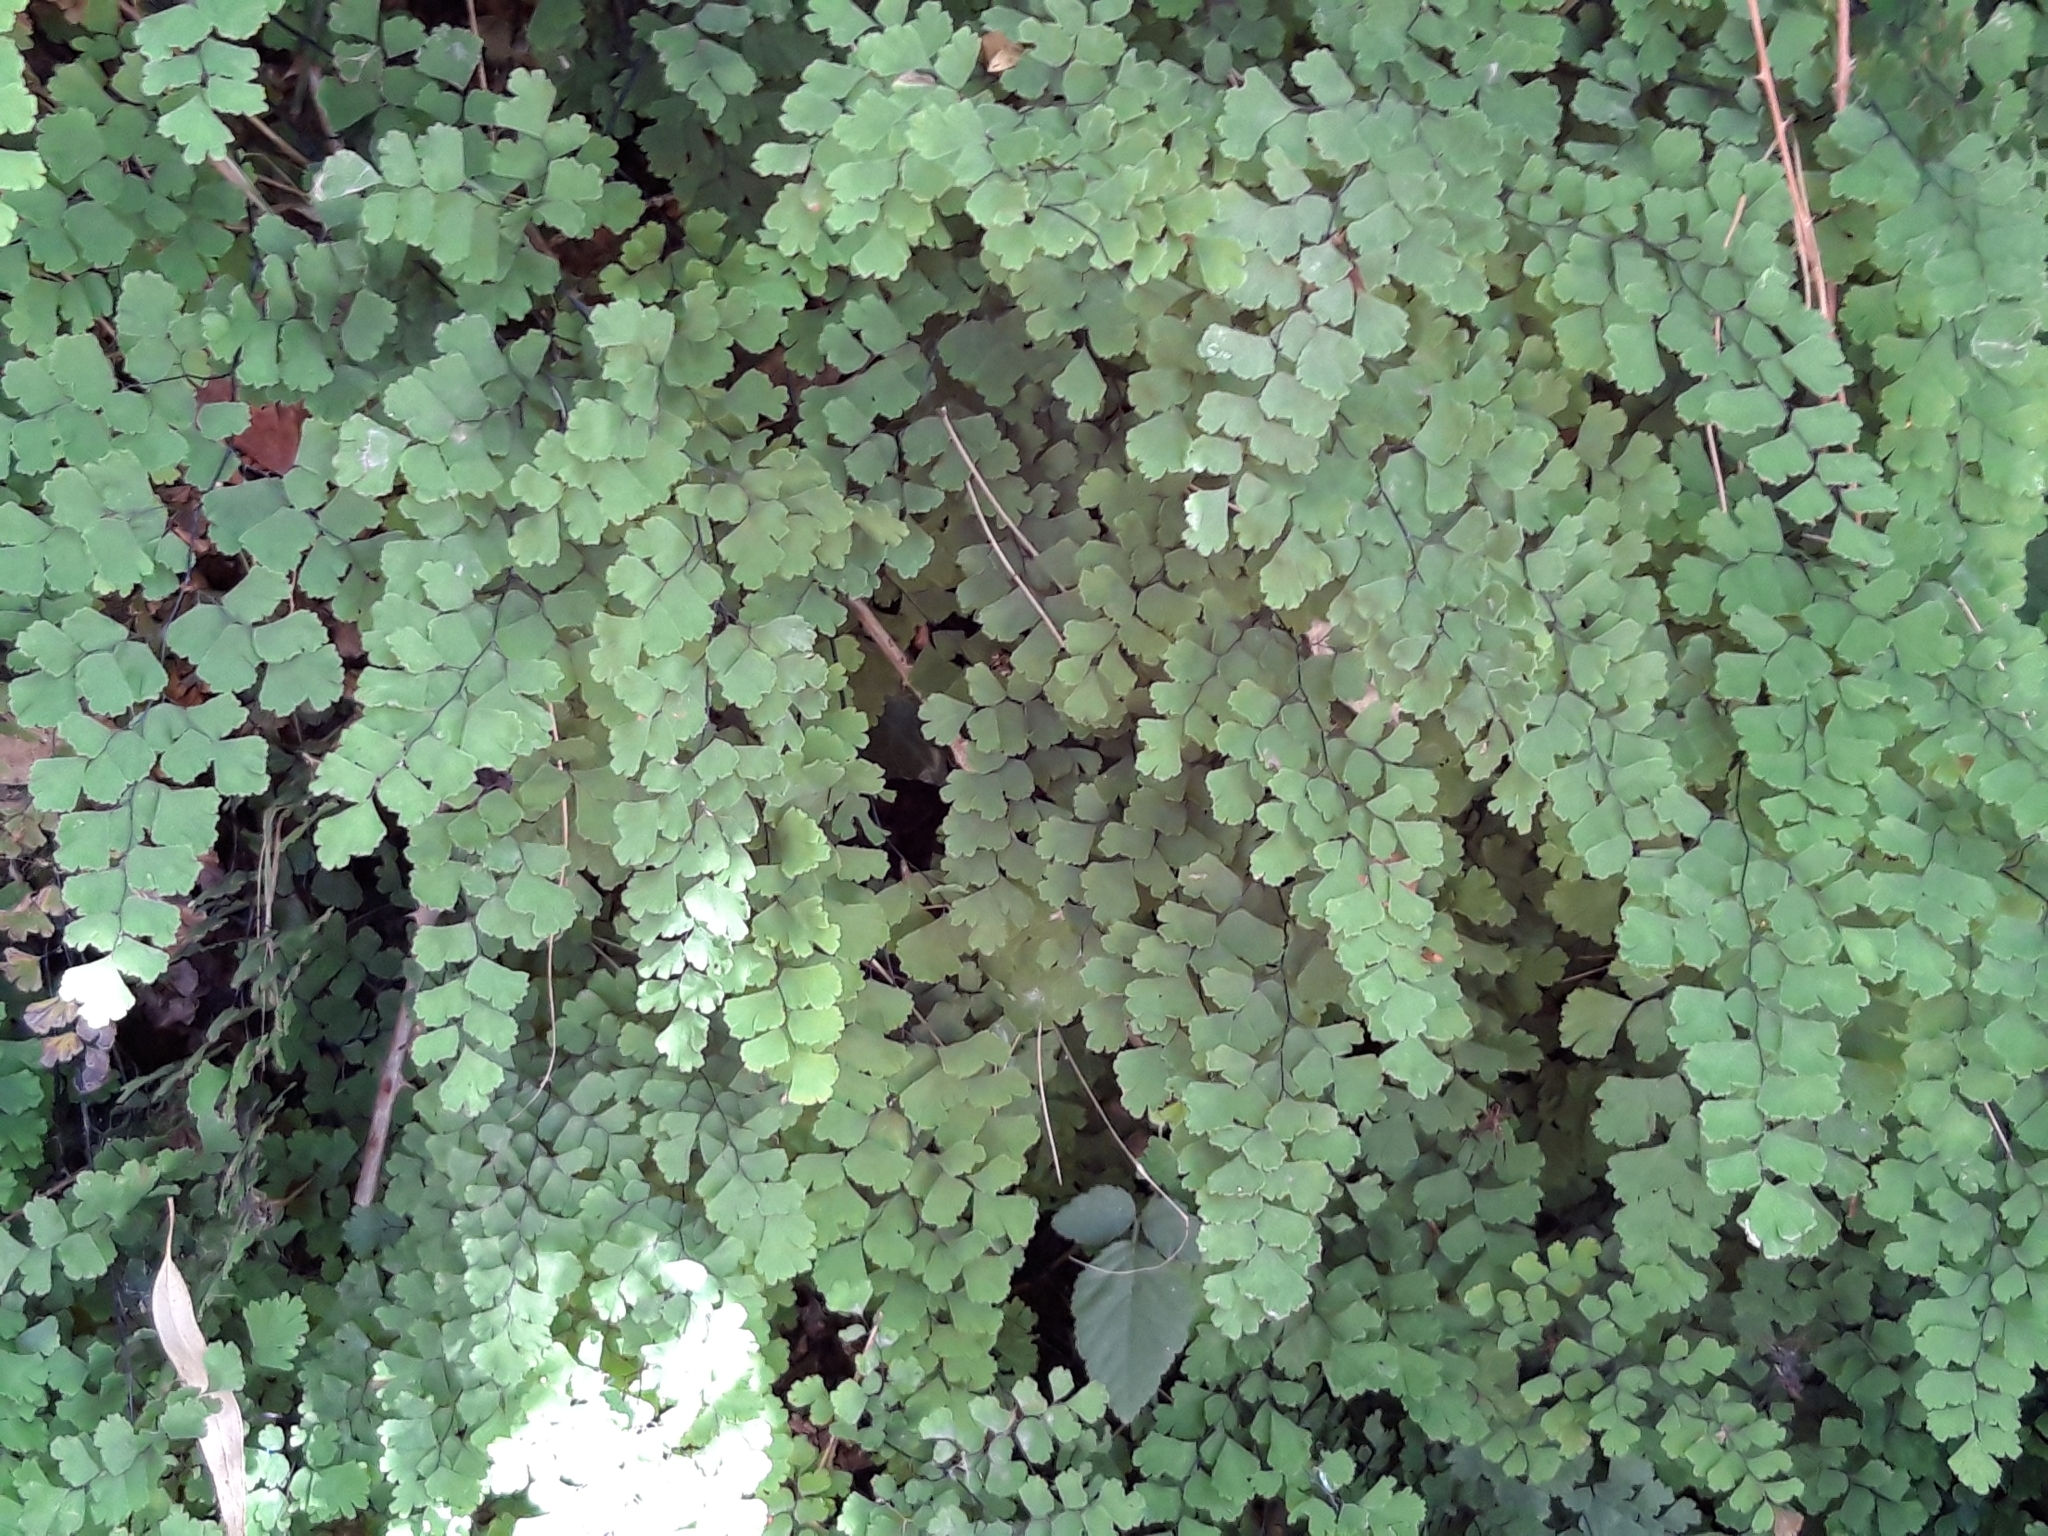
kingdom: Plantae
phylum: Tracheophyta
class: Polypodiopsida
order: Polypodiales
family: Pteridaceae
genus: Adiantum
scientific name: Adiantum capillus-veneris
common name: Maidenhair fern
